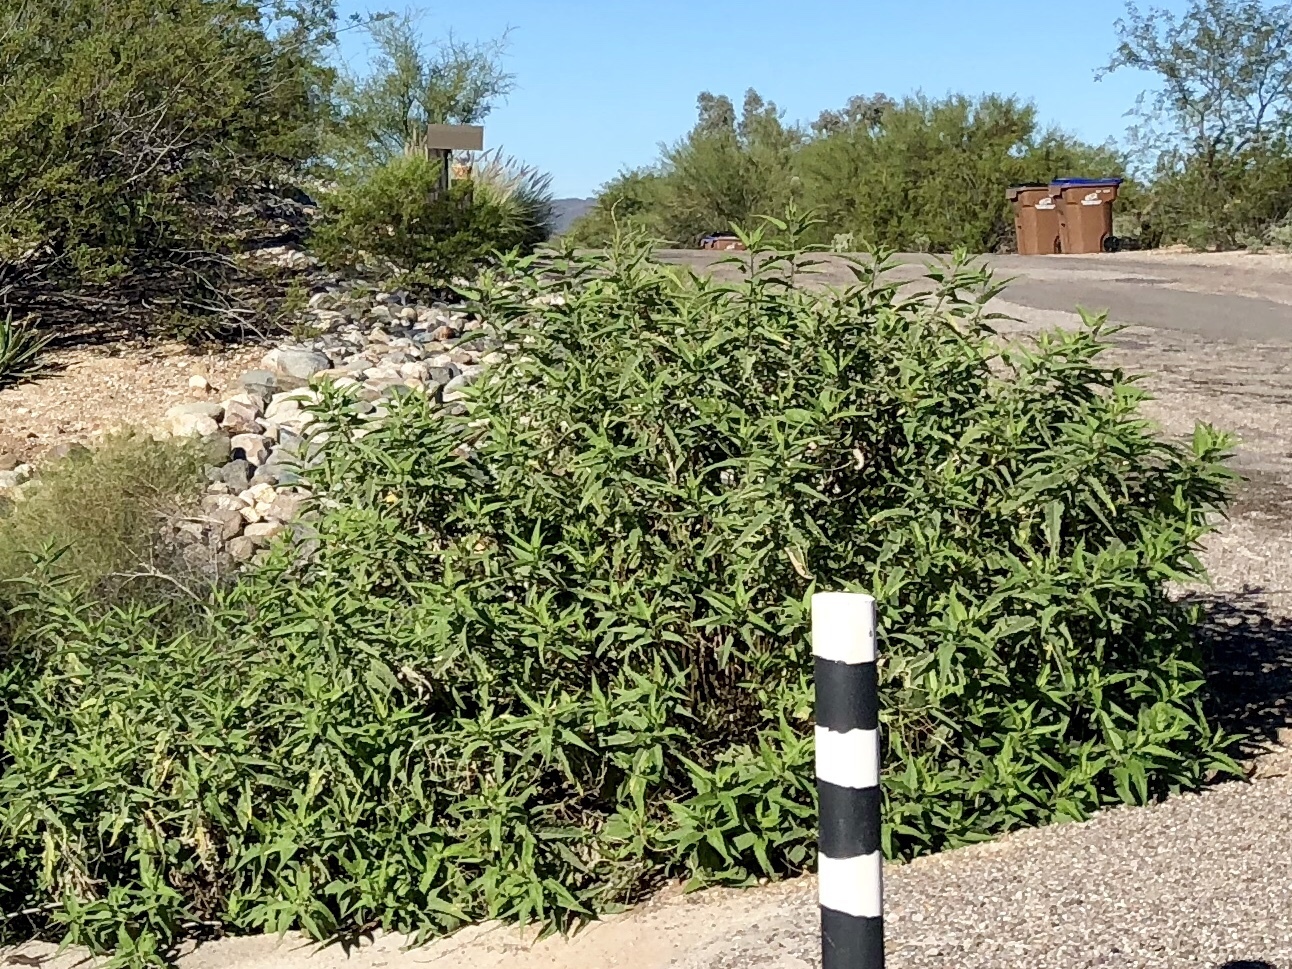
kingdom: Plantae
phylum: Tracheophyta
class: Magnoliopsida
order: Asterales
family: Asteraceae
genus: Ambrosia
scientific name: Ambrosia ambrosioides
